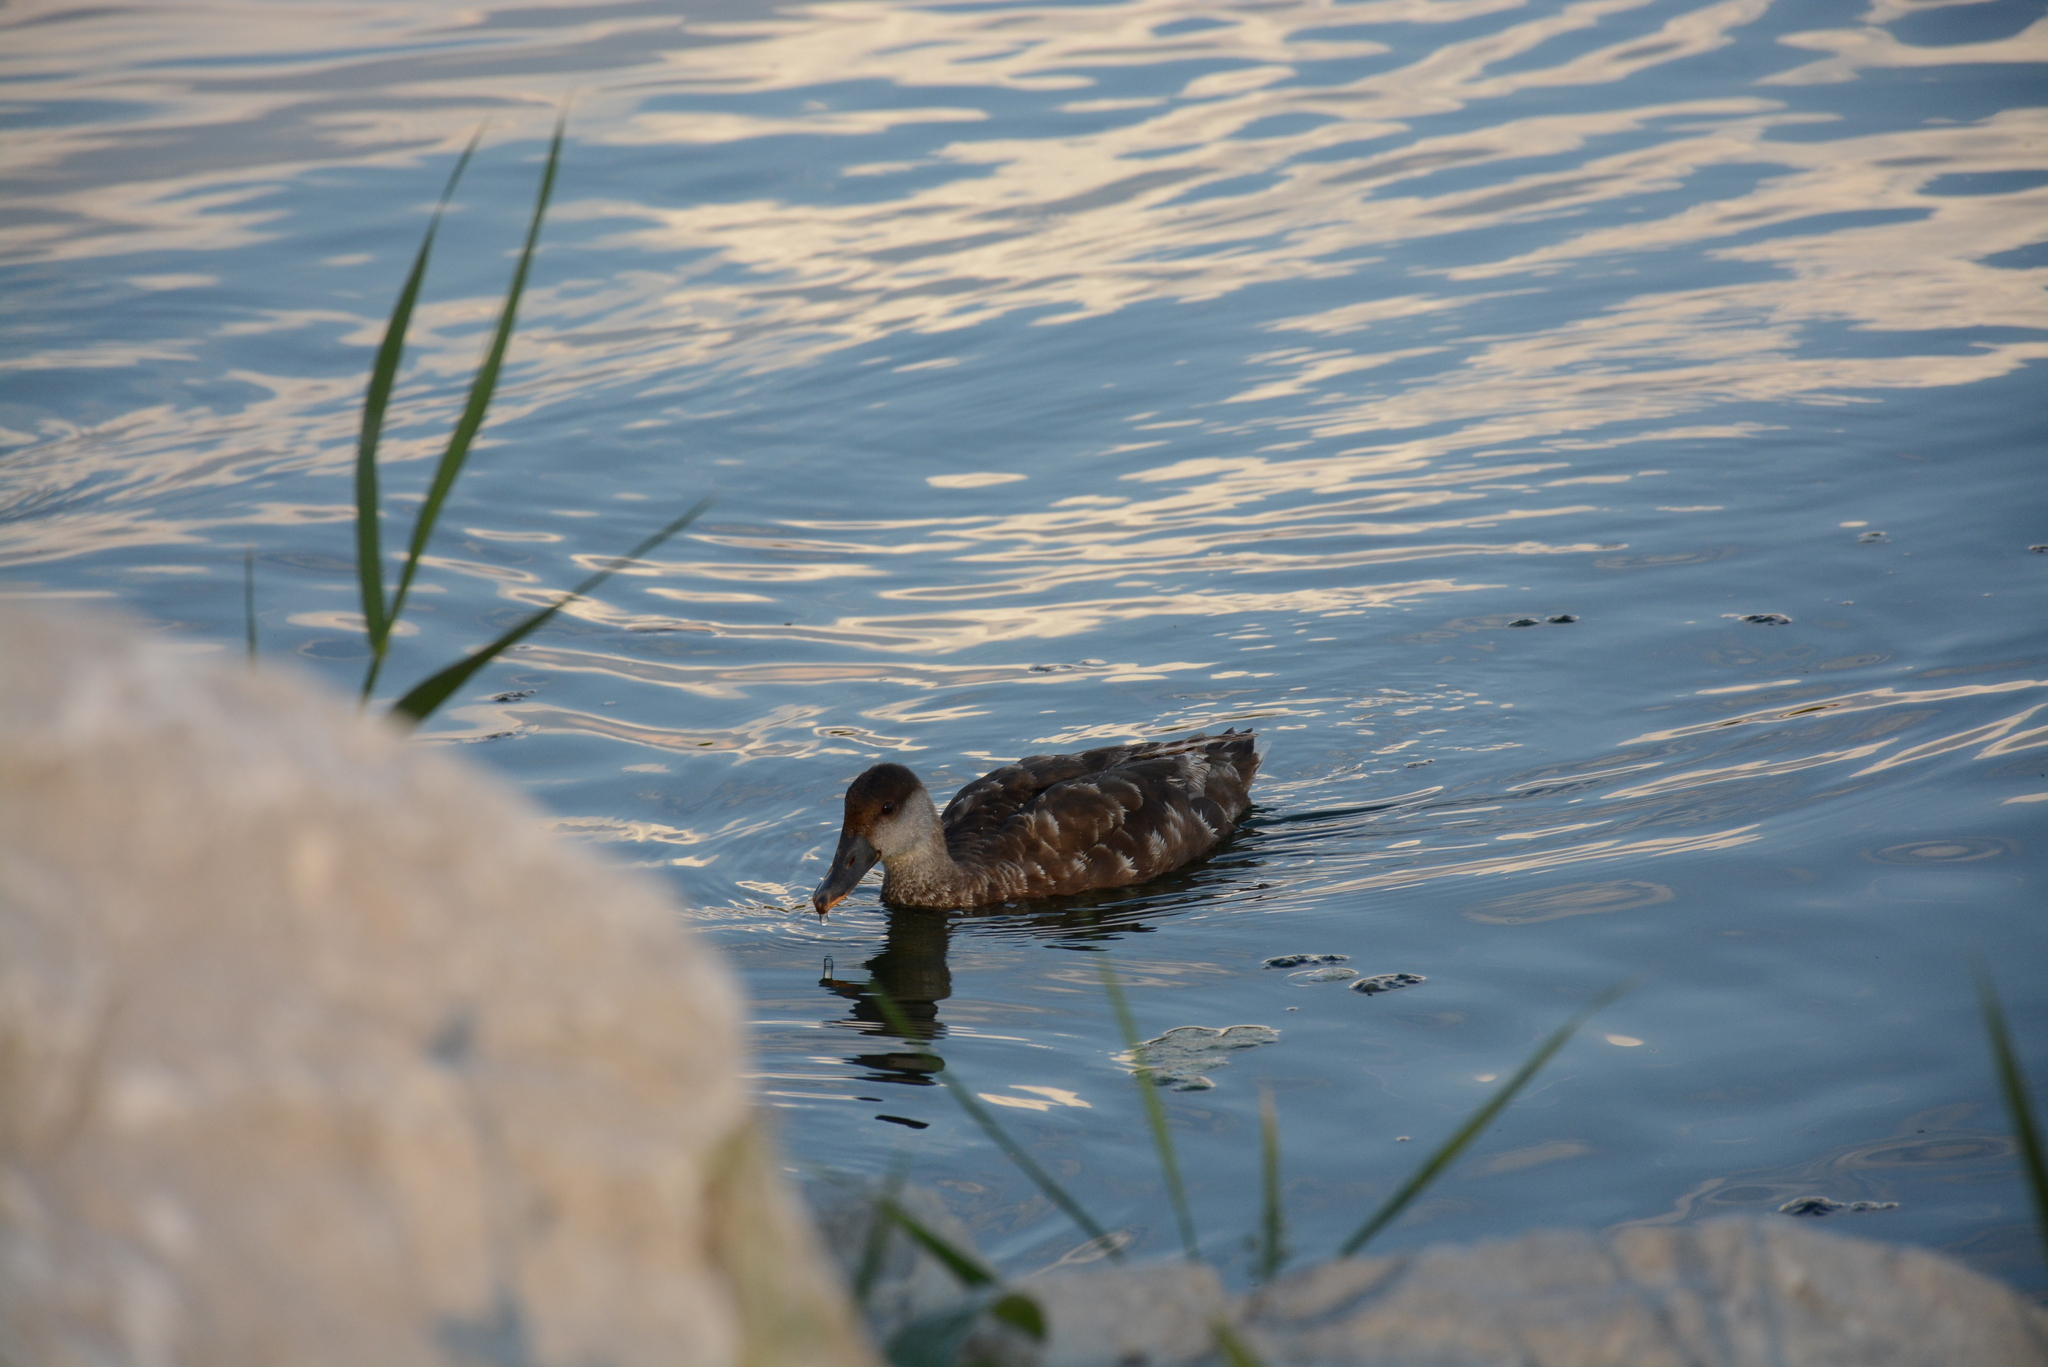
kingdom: Animalia
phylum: Chordata
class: Aves
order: Anseriformes
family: Anatidae
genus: Netta
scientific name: Netta rufina
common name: Red-crested pochard
